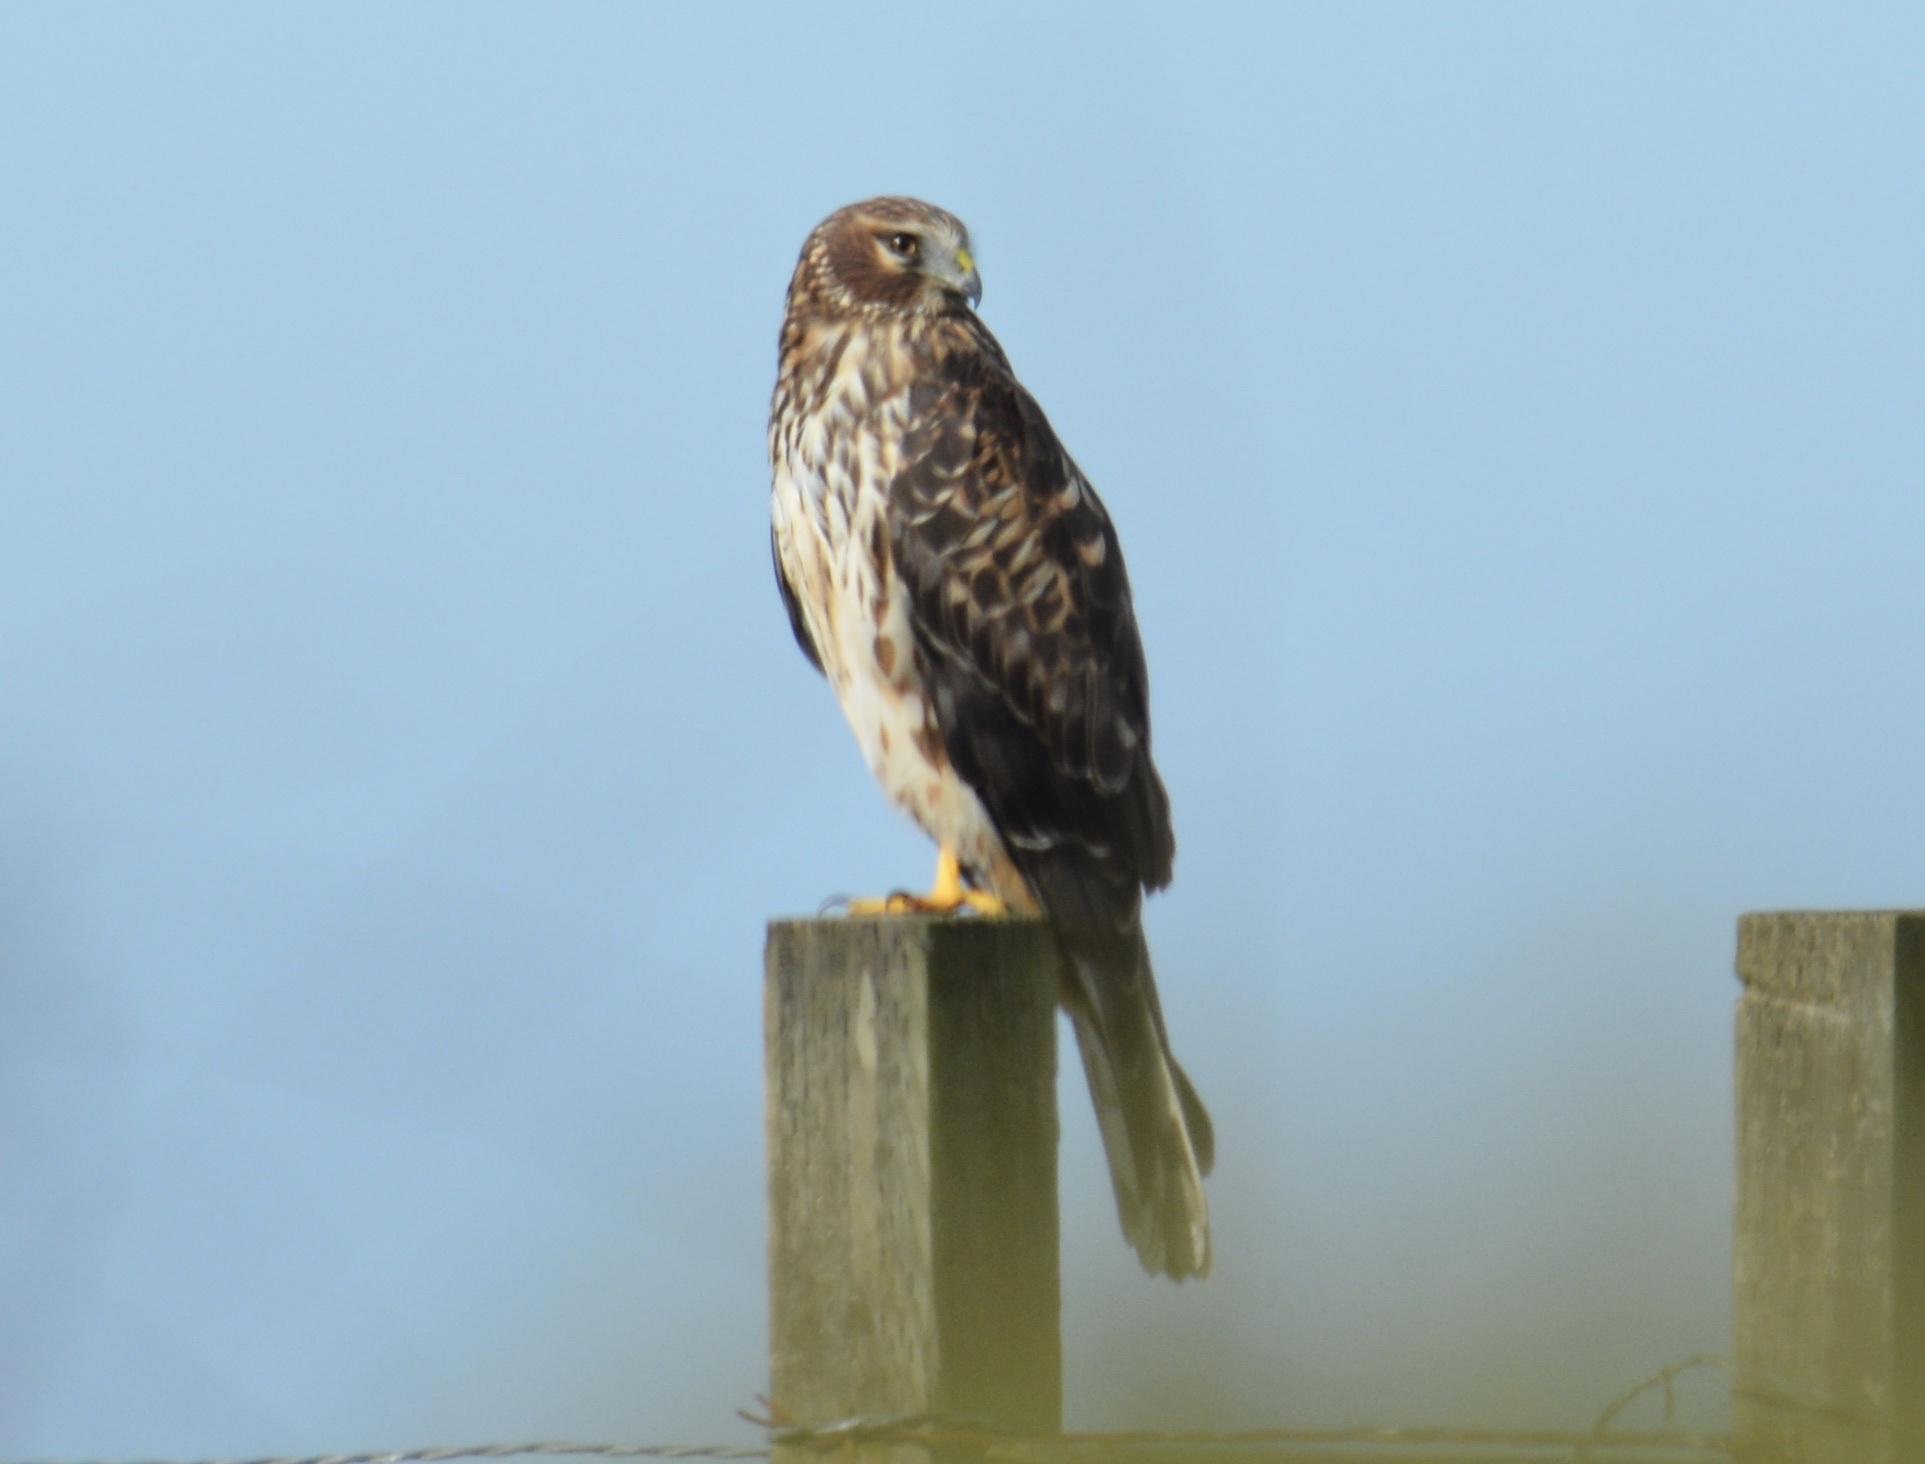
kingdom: Animalia
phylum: Chordata
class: Aves
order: Accipitriformes
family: Accipitridae
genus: Circus
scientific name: Circus cyaneus
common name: Hen harrier
